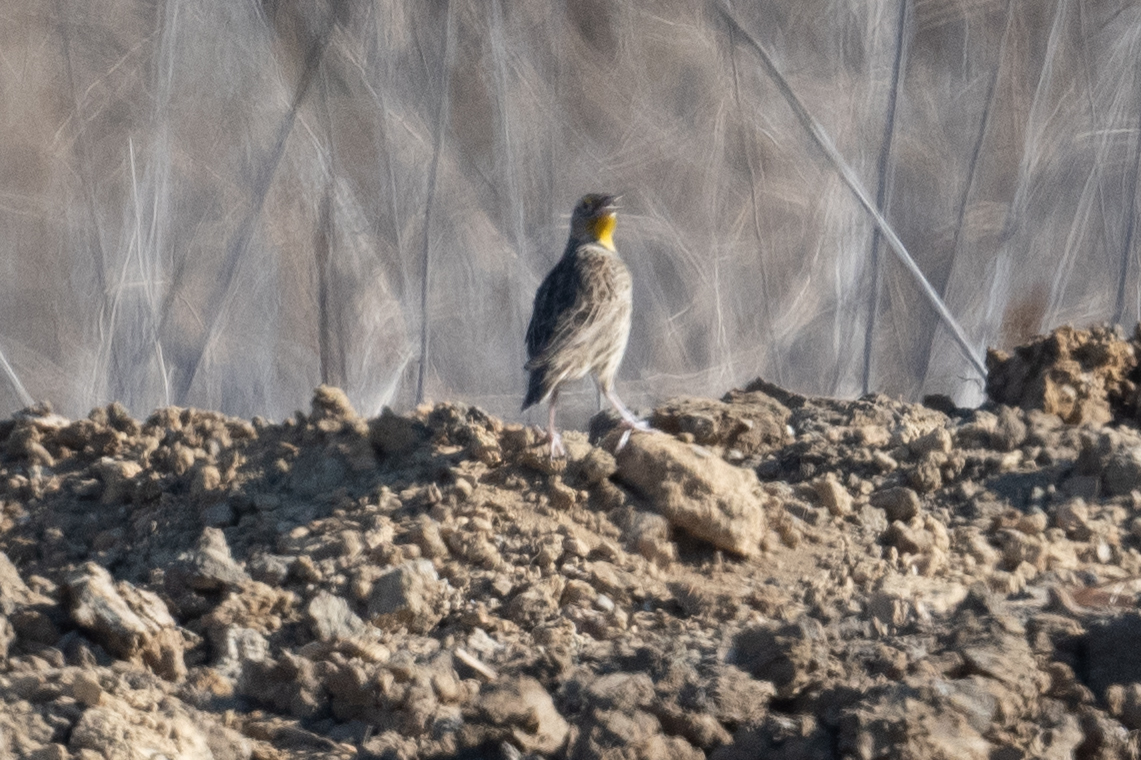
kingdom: Animalia
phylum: Chordata
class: Aves
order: Passeriformes
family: Icteridae
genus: Sturnella
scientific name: Sturnella neglecta
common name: Western meadowlark
